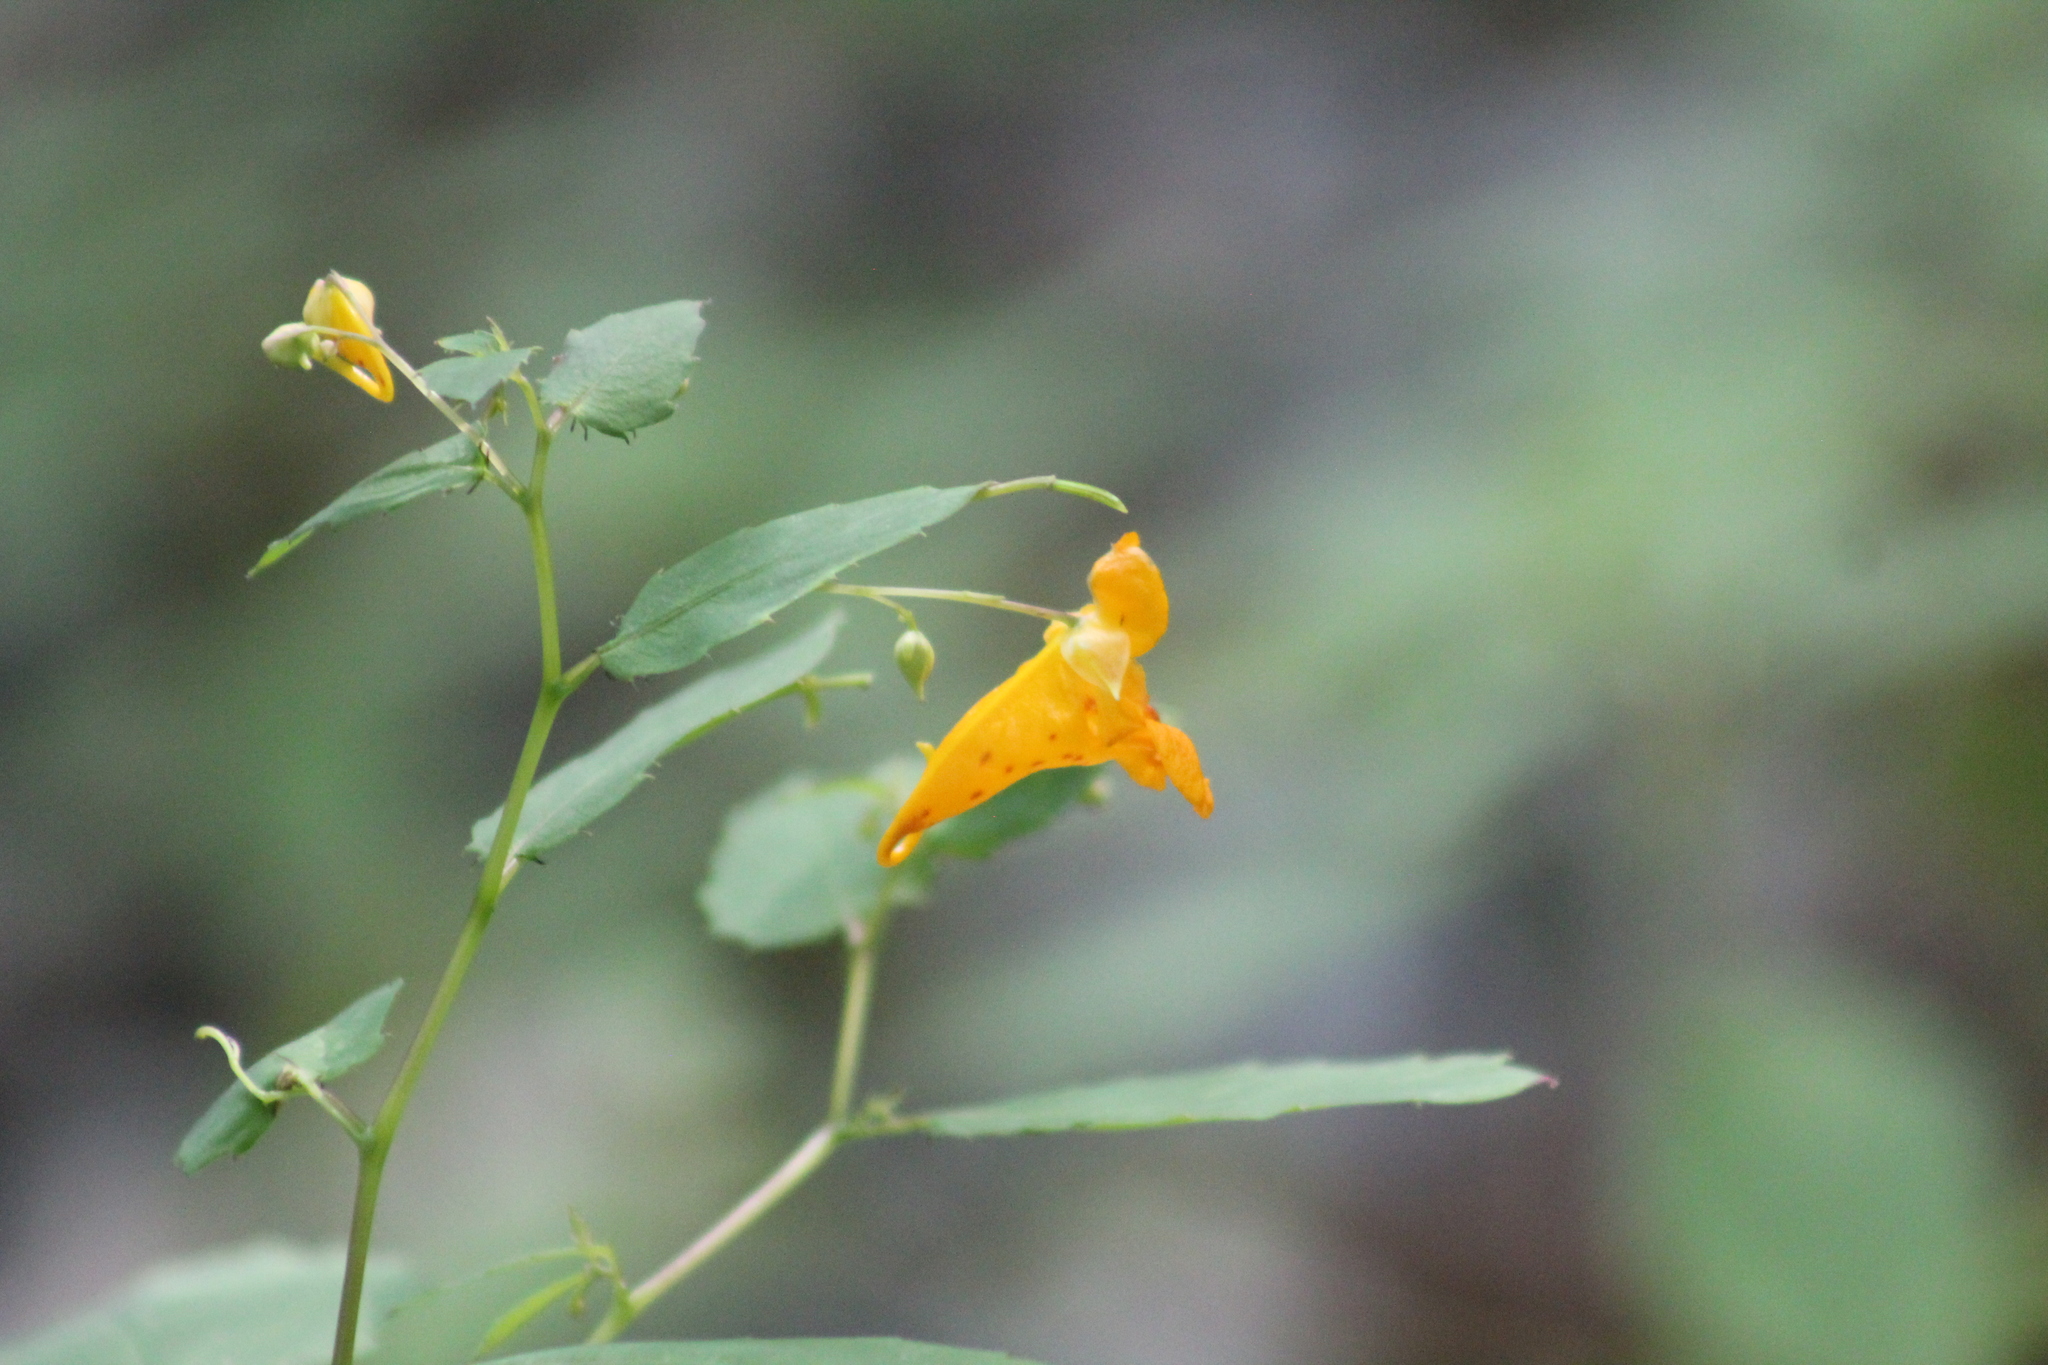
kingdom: Plantae
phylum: Tracheophyta
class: Magnoliopsida
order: Ericales
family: Balsaminaceae
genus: Impatiens
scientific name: Impatiens capensis
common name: Orange balsam
